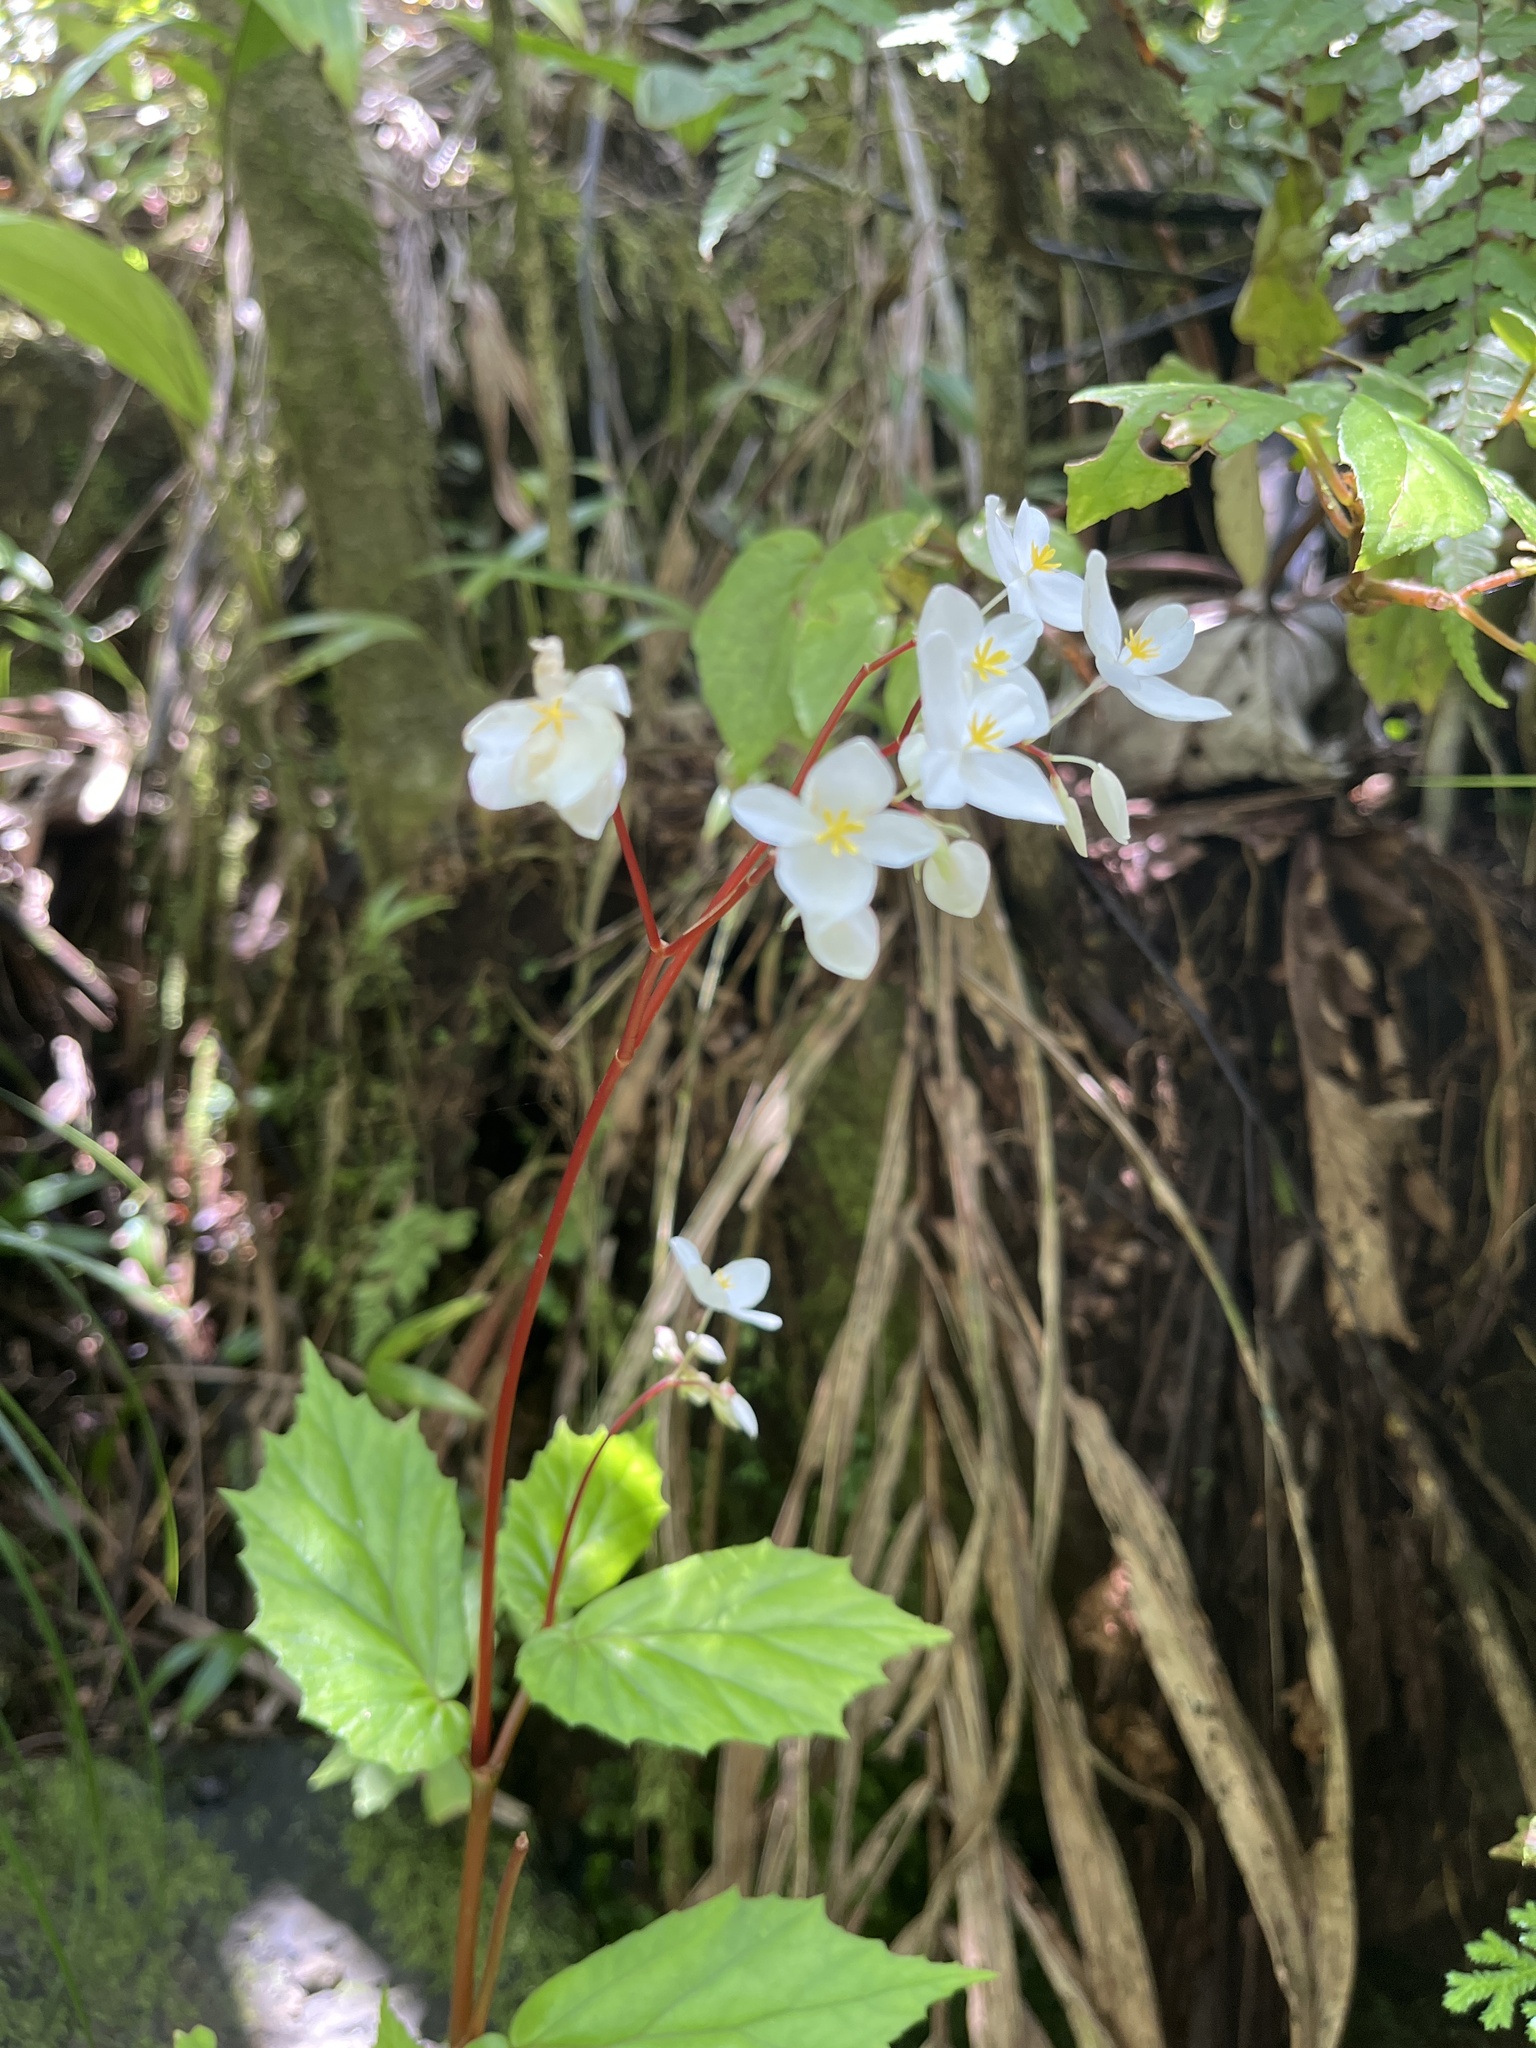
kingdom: Plantae
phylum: Tracheophyta
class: Magnoliopsida
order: Cucurbitales
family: Begoniaceae
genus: Begonia
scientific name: Begonia decandra
